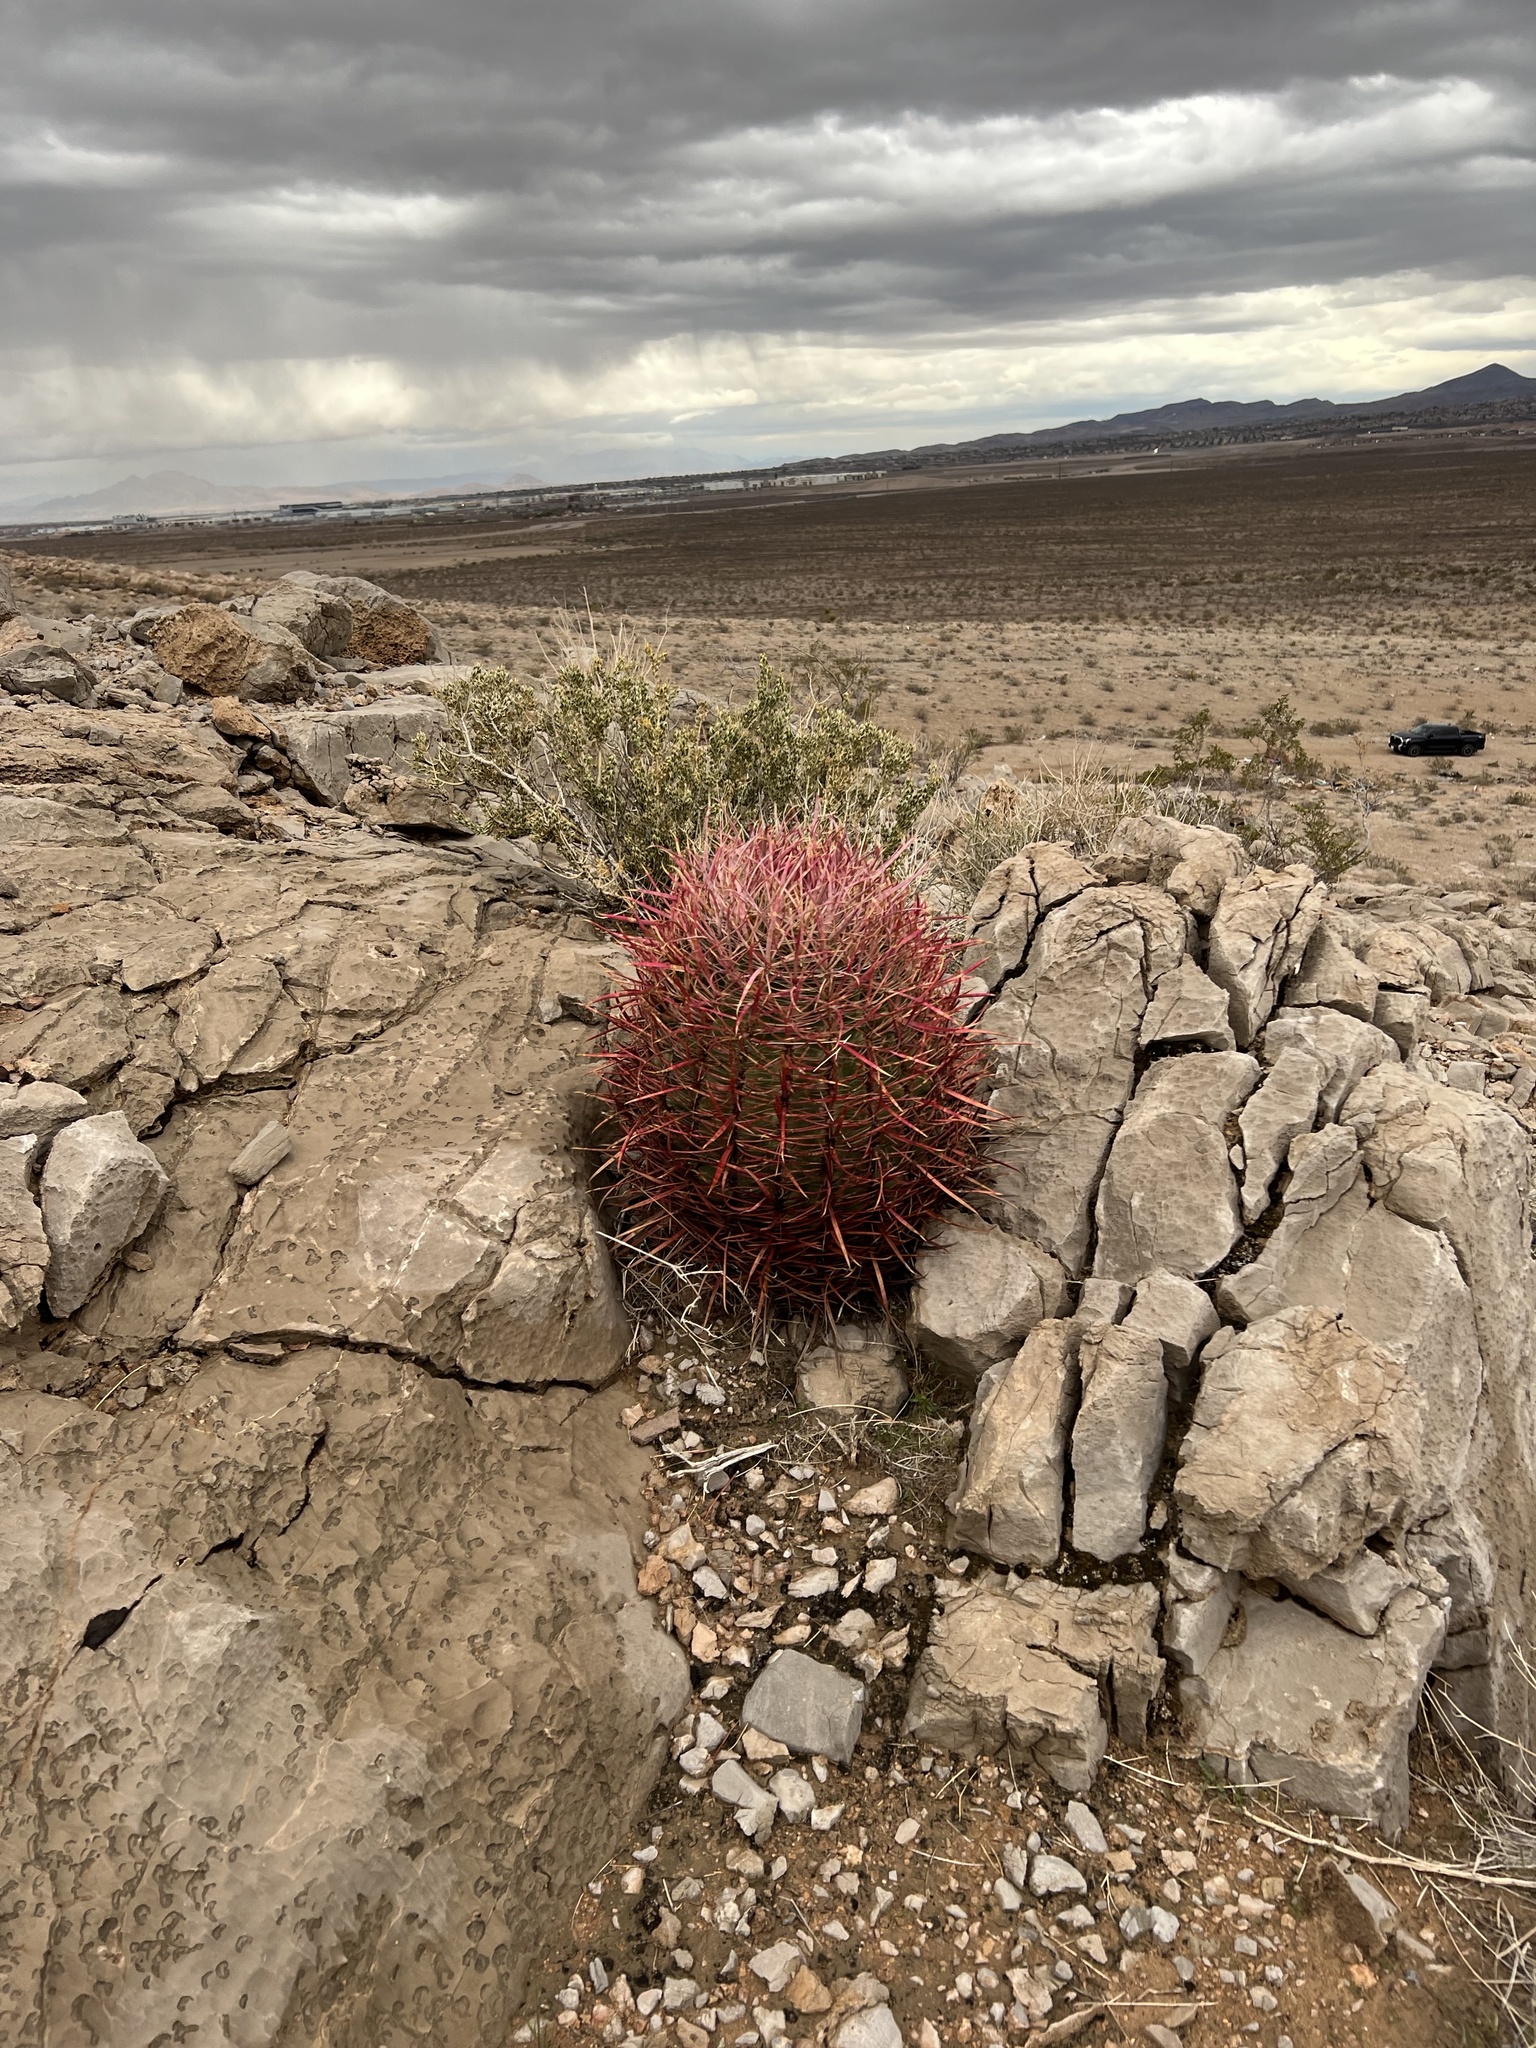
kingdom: Plantae
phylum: Tracheophyta
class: Magnoliopsida
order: Caryophyllales
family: Cactaceae
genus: Ferocactus
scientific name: Ferocactus cylindraceus
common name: California barrel cactus
